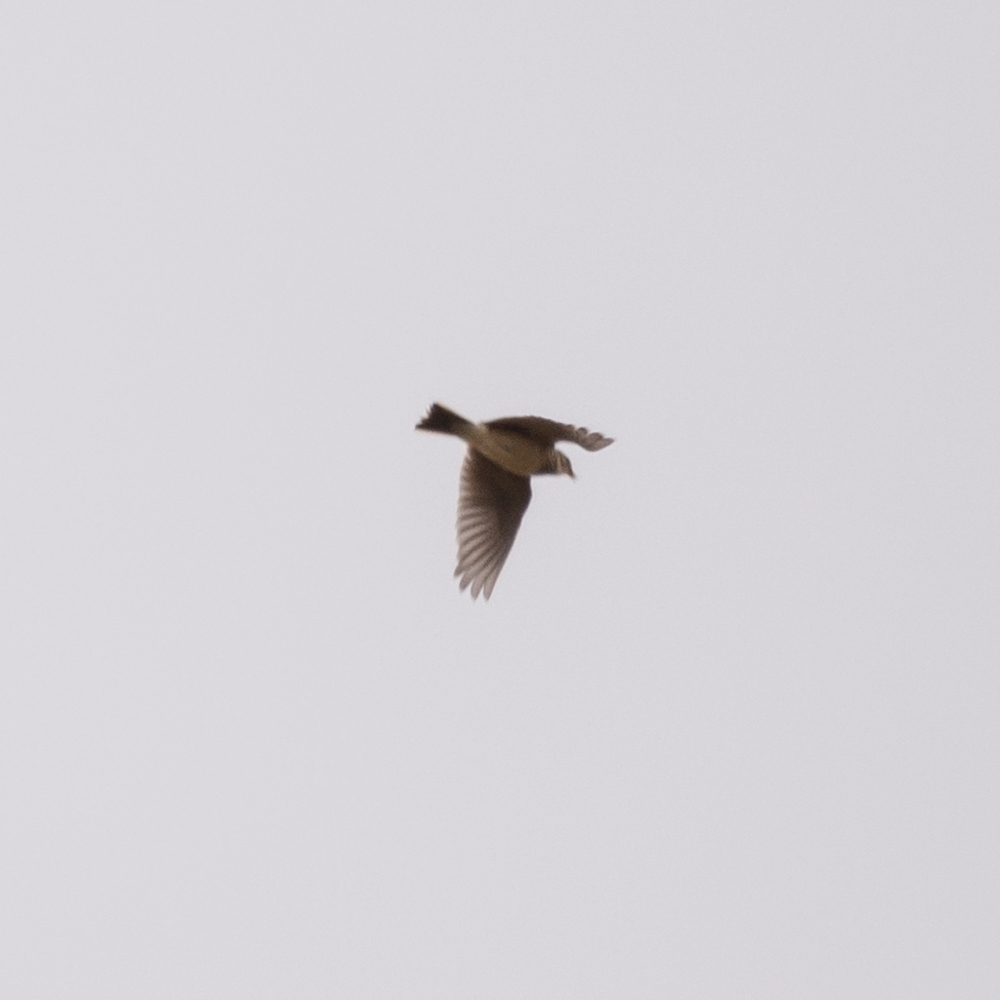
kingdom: Animalia
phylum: Chordata
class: Aves
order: Passeriformes
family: Alaudidae
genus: Alauda
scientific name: Alauda arvensis
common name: Eurasian skylark
